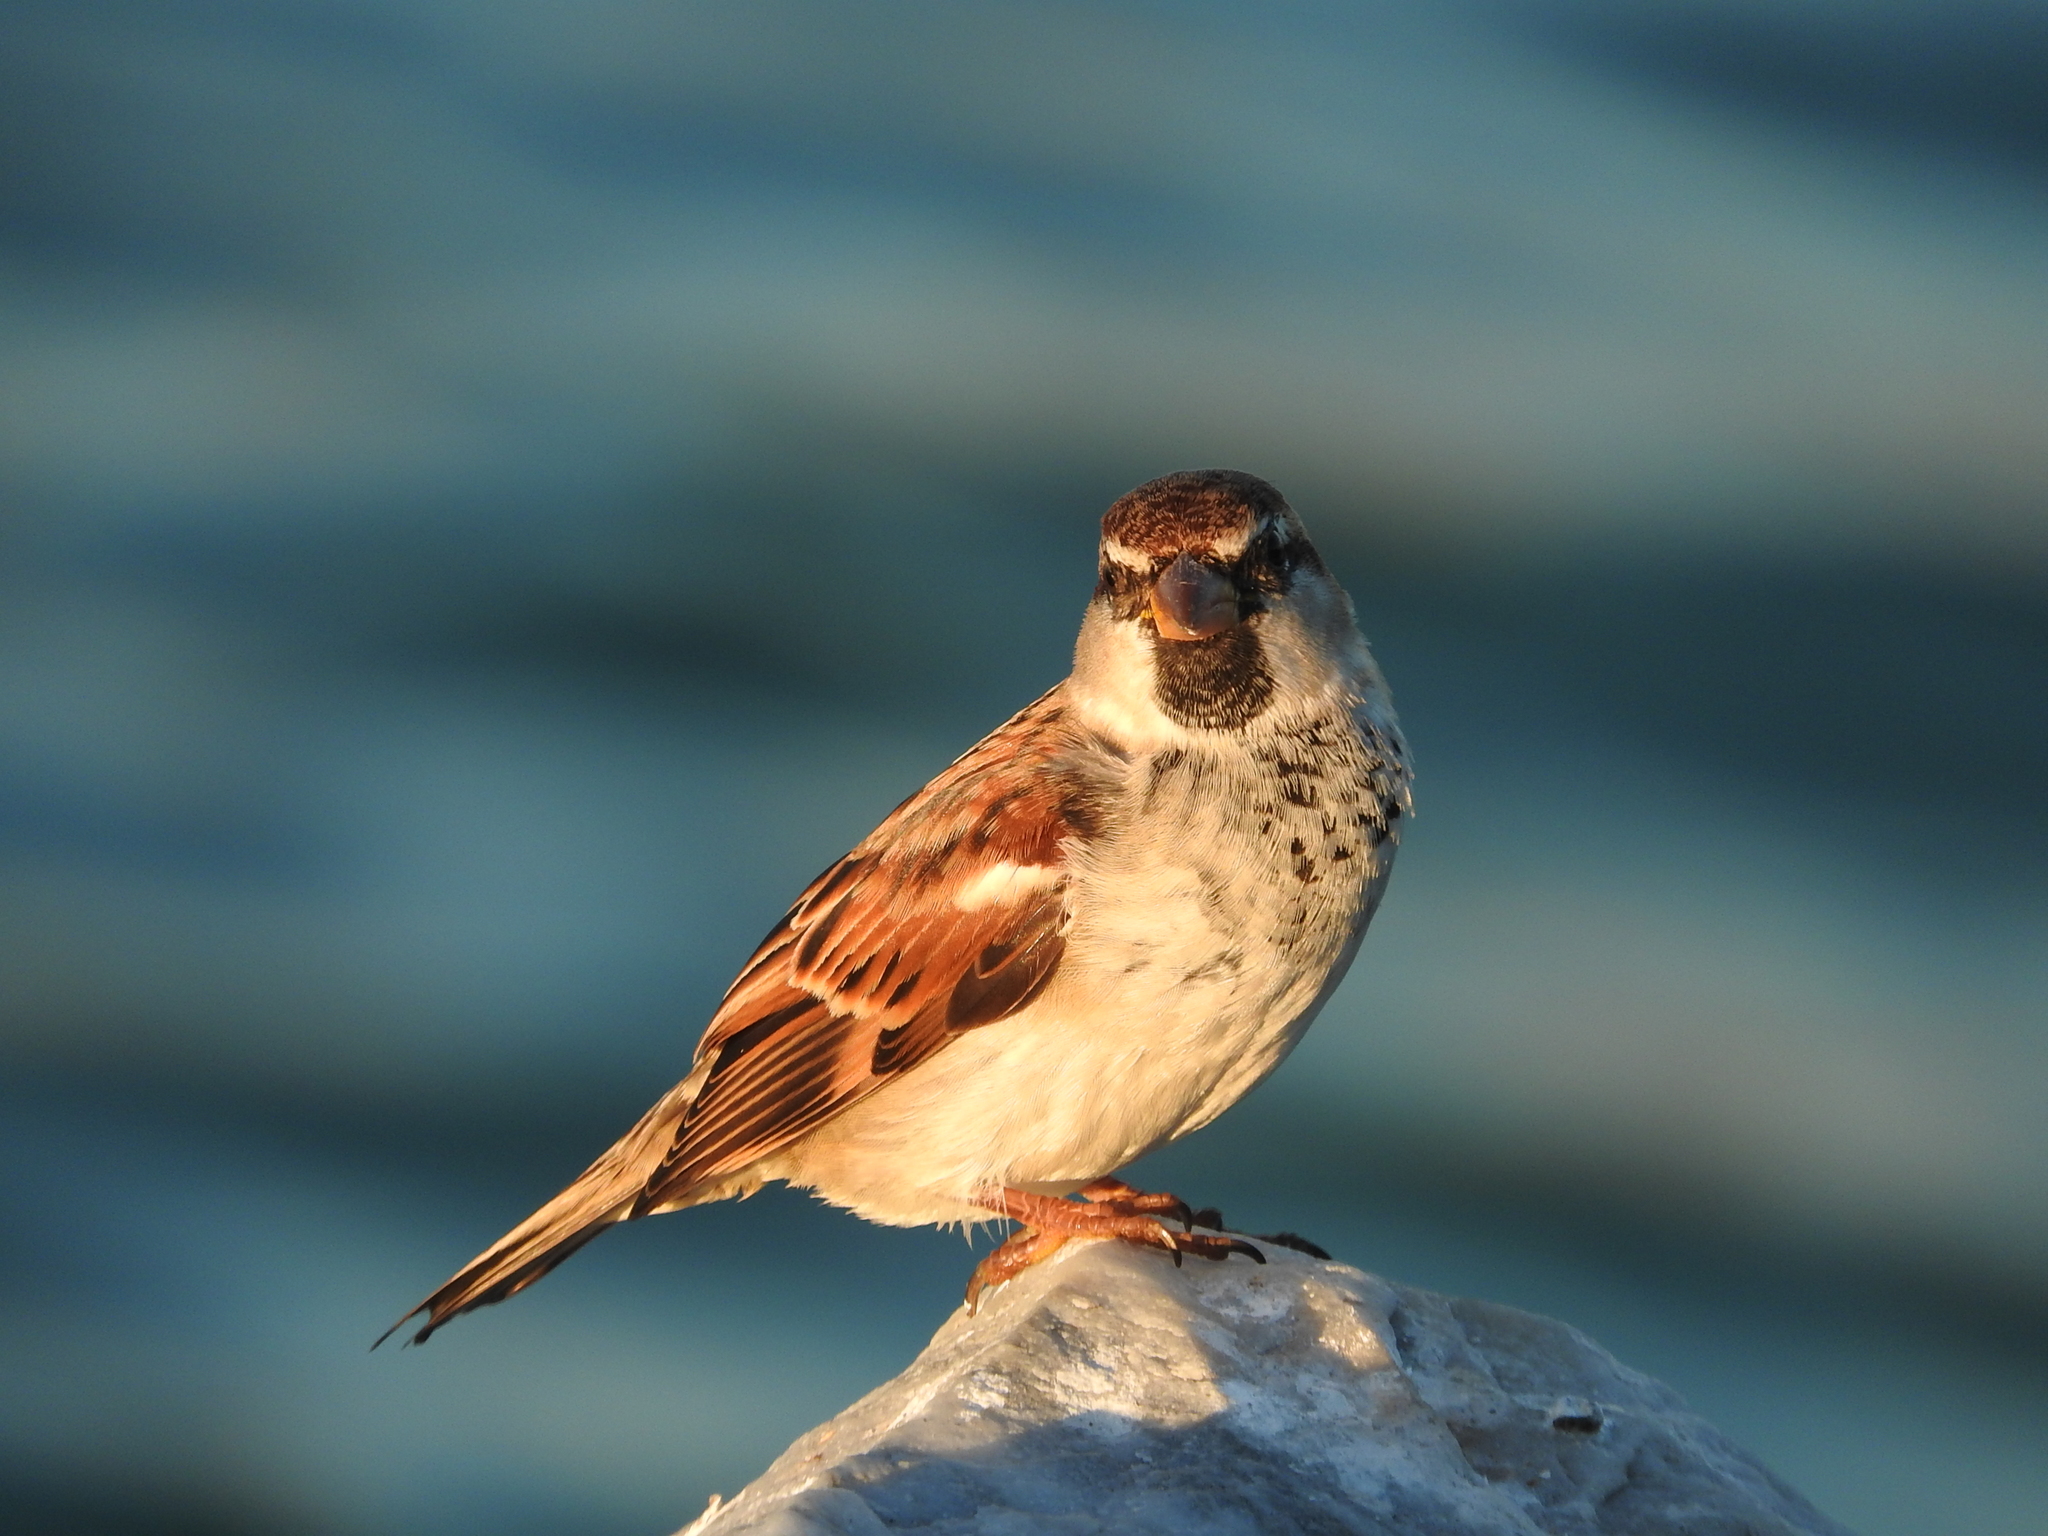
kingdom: Animalia
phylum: Chordata
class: Aves
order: Passeriformes
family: Passeridae
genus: Passer
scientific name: Passer italiae
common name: Italian sparrow
